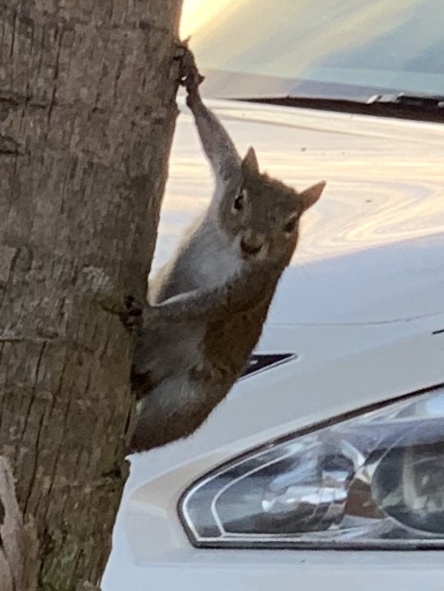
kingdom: Animalia
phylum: Chordata
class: Mammalia
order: Rodentia
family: Sciuridae
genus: Sciurus
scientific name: Sciurus carolinensis
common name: Eastern gray squirrel
